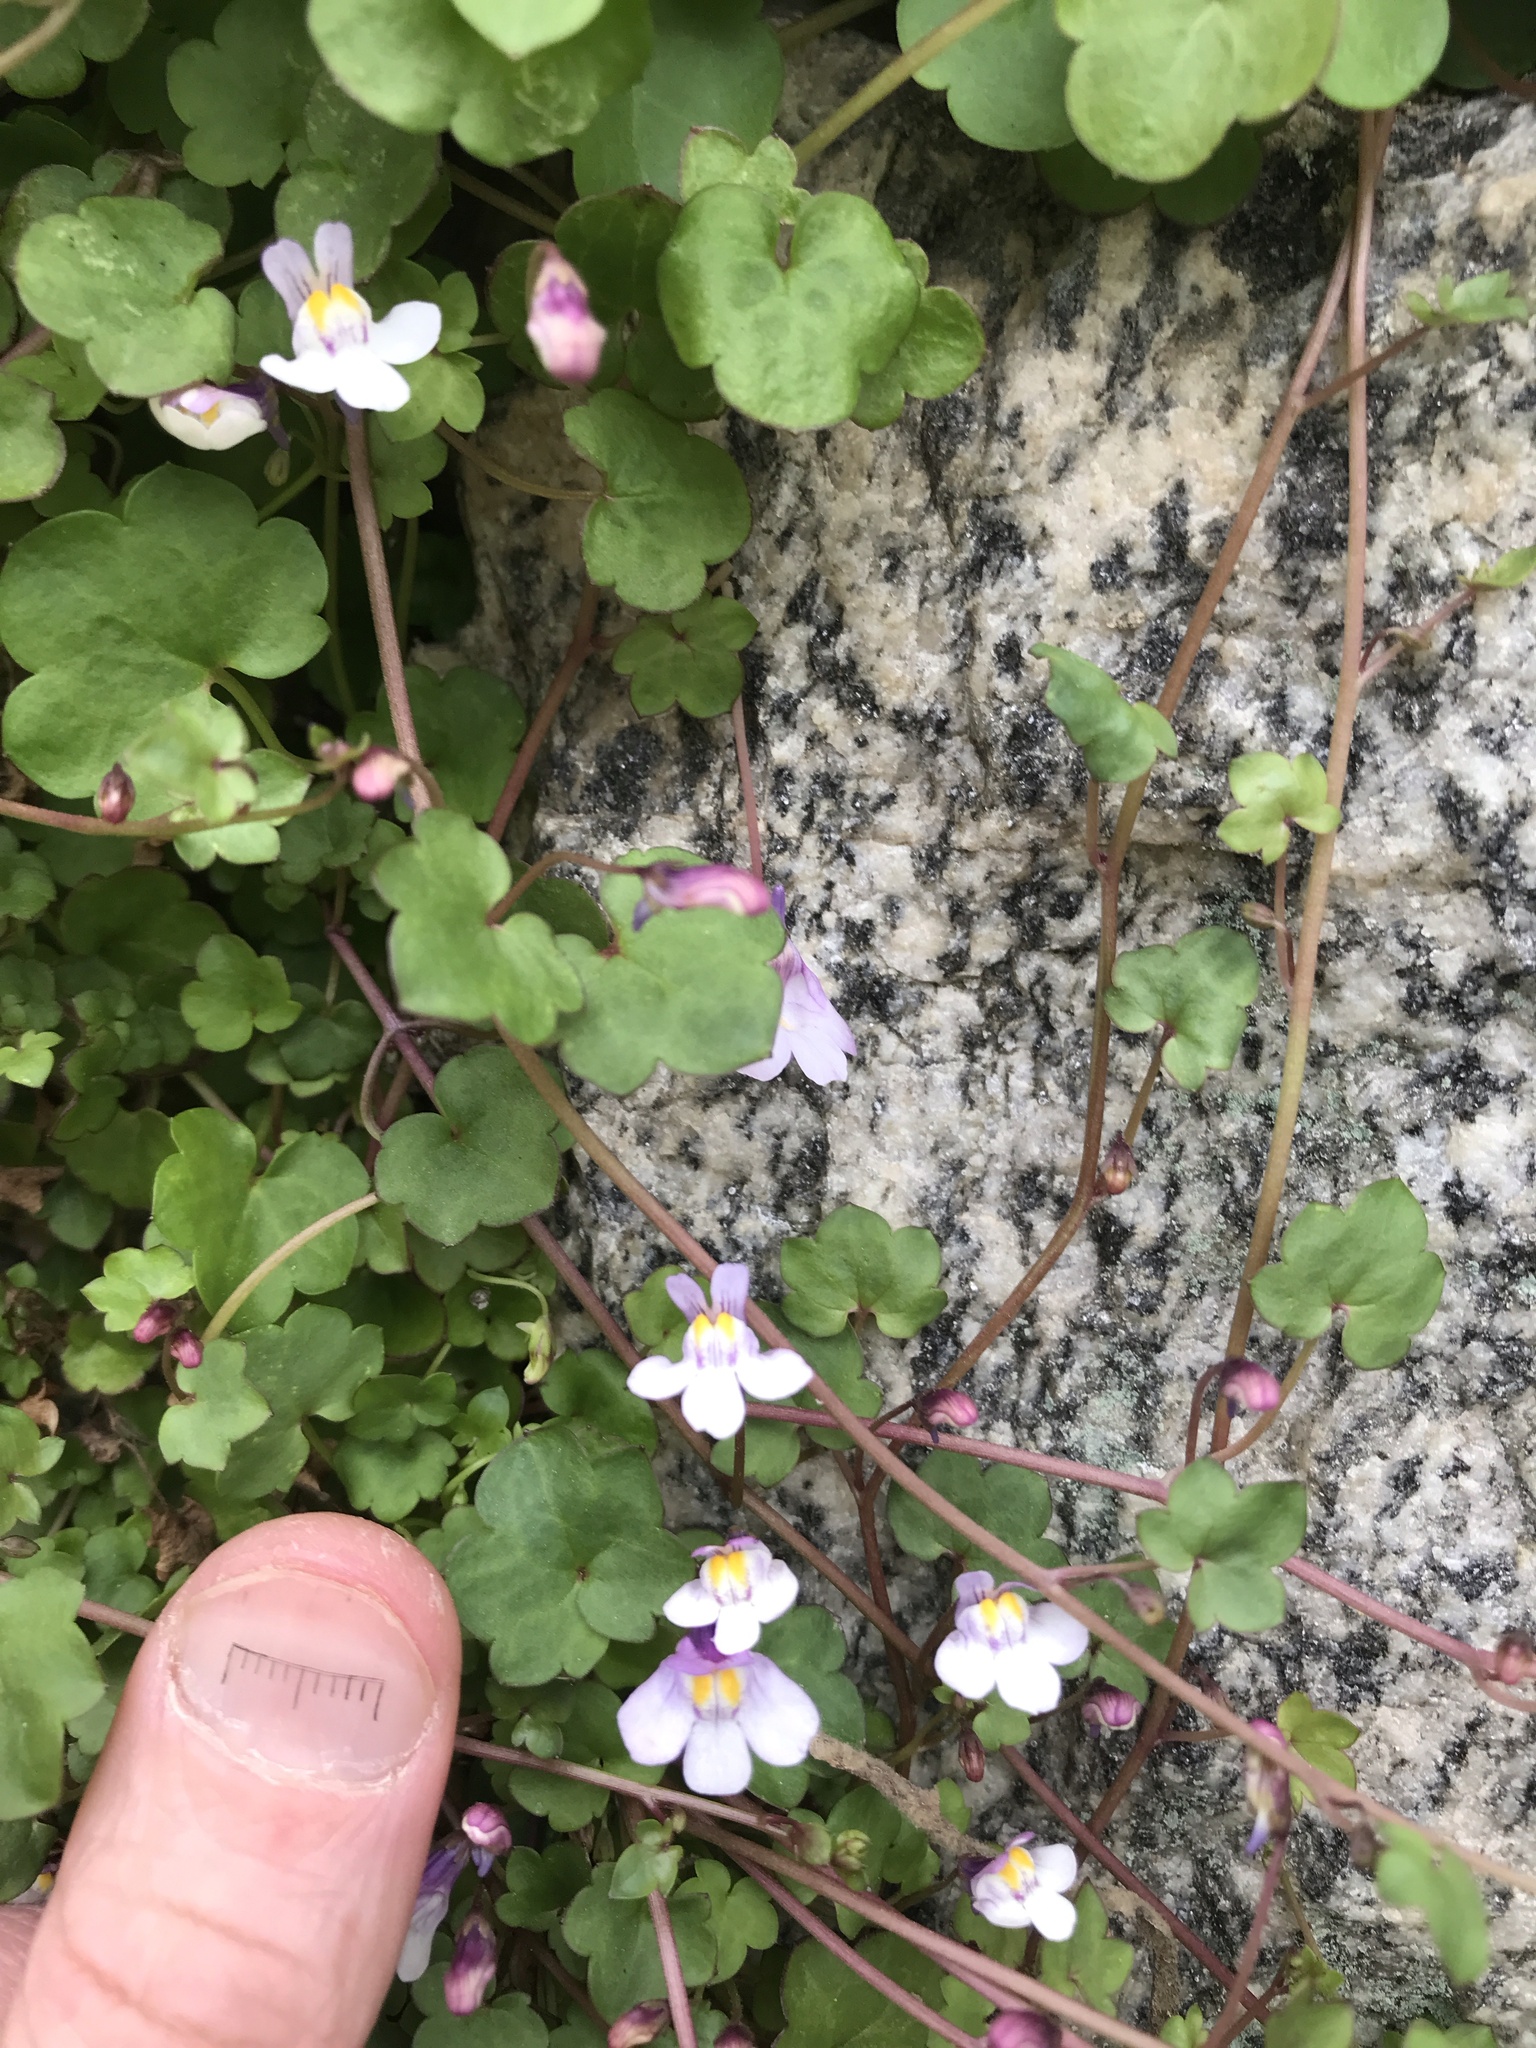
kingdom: Plantae
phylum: Tracheophyta
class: Magnoliopsida
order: Lamiales
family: Plantaginaceae
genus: Cymbalaria
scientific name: Cymbalaria muralis
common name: Ivy-leaved toadflax
